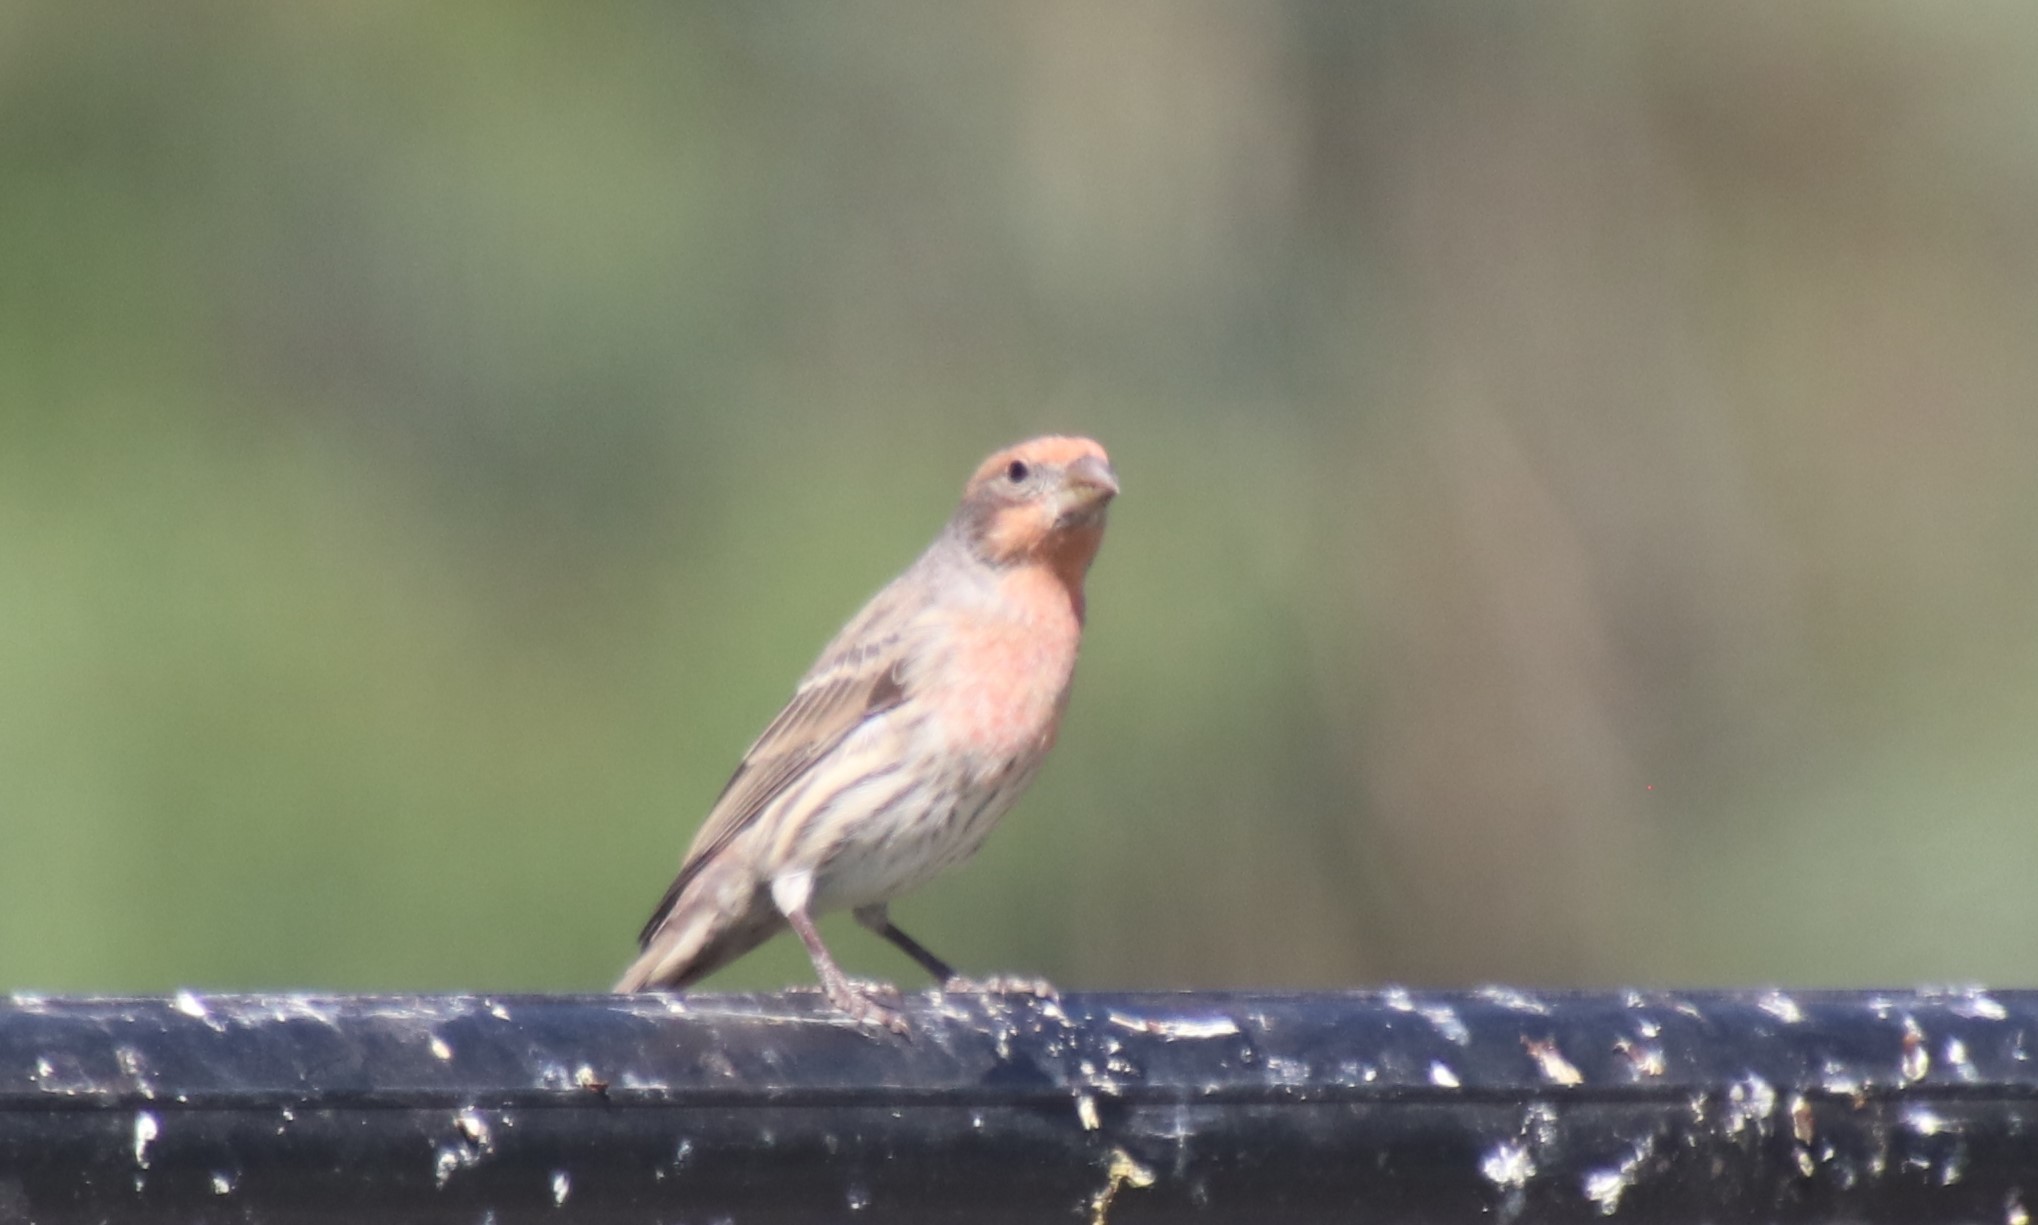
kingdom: Animalia
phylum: Chordata
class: Aves
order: Passeriformes
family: Fringillidae
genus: Haemorhous
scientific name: Haemorhous mexicanus
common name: House finch
